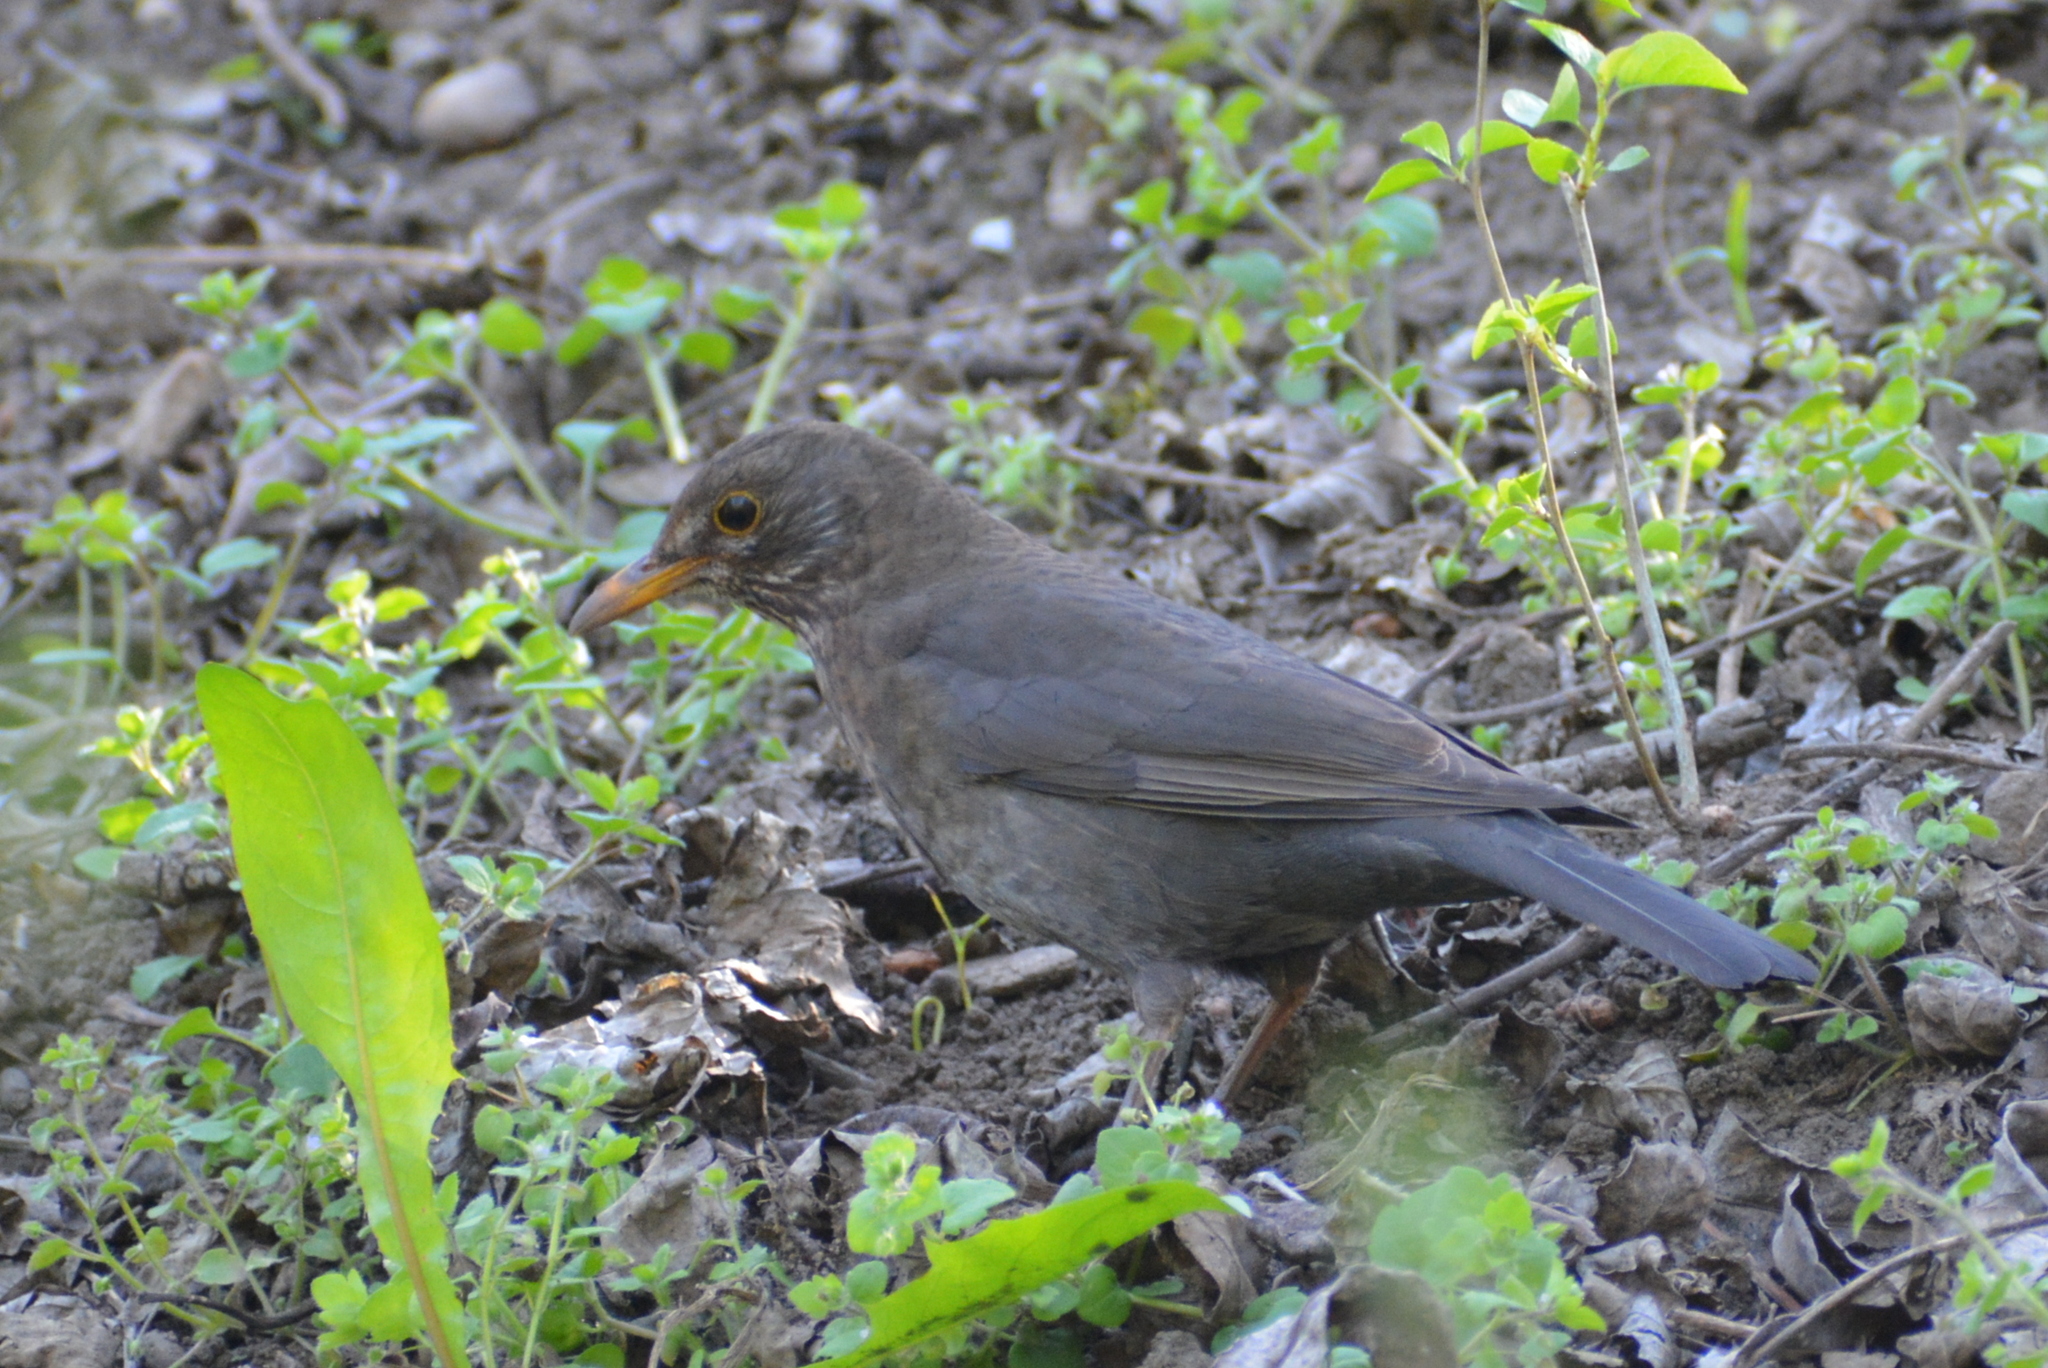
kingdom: Animalia
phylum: Chordata
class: Aves
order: Passeriformes
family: Turdidae
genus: Turdus
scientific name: Turdus merula
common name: Common blackbird
